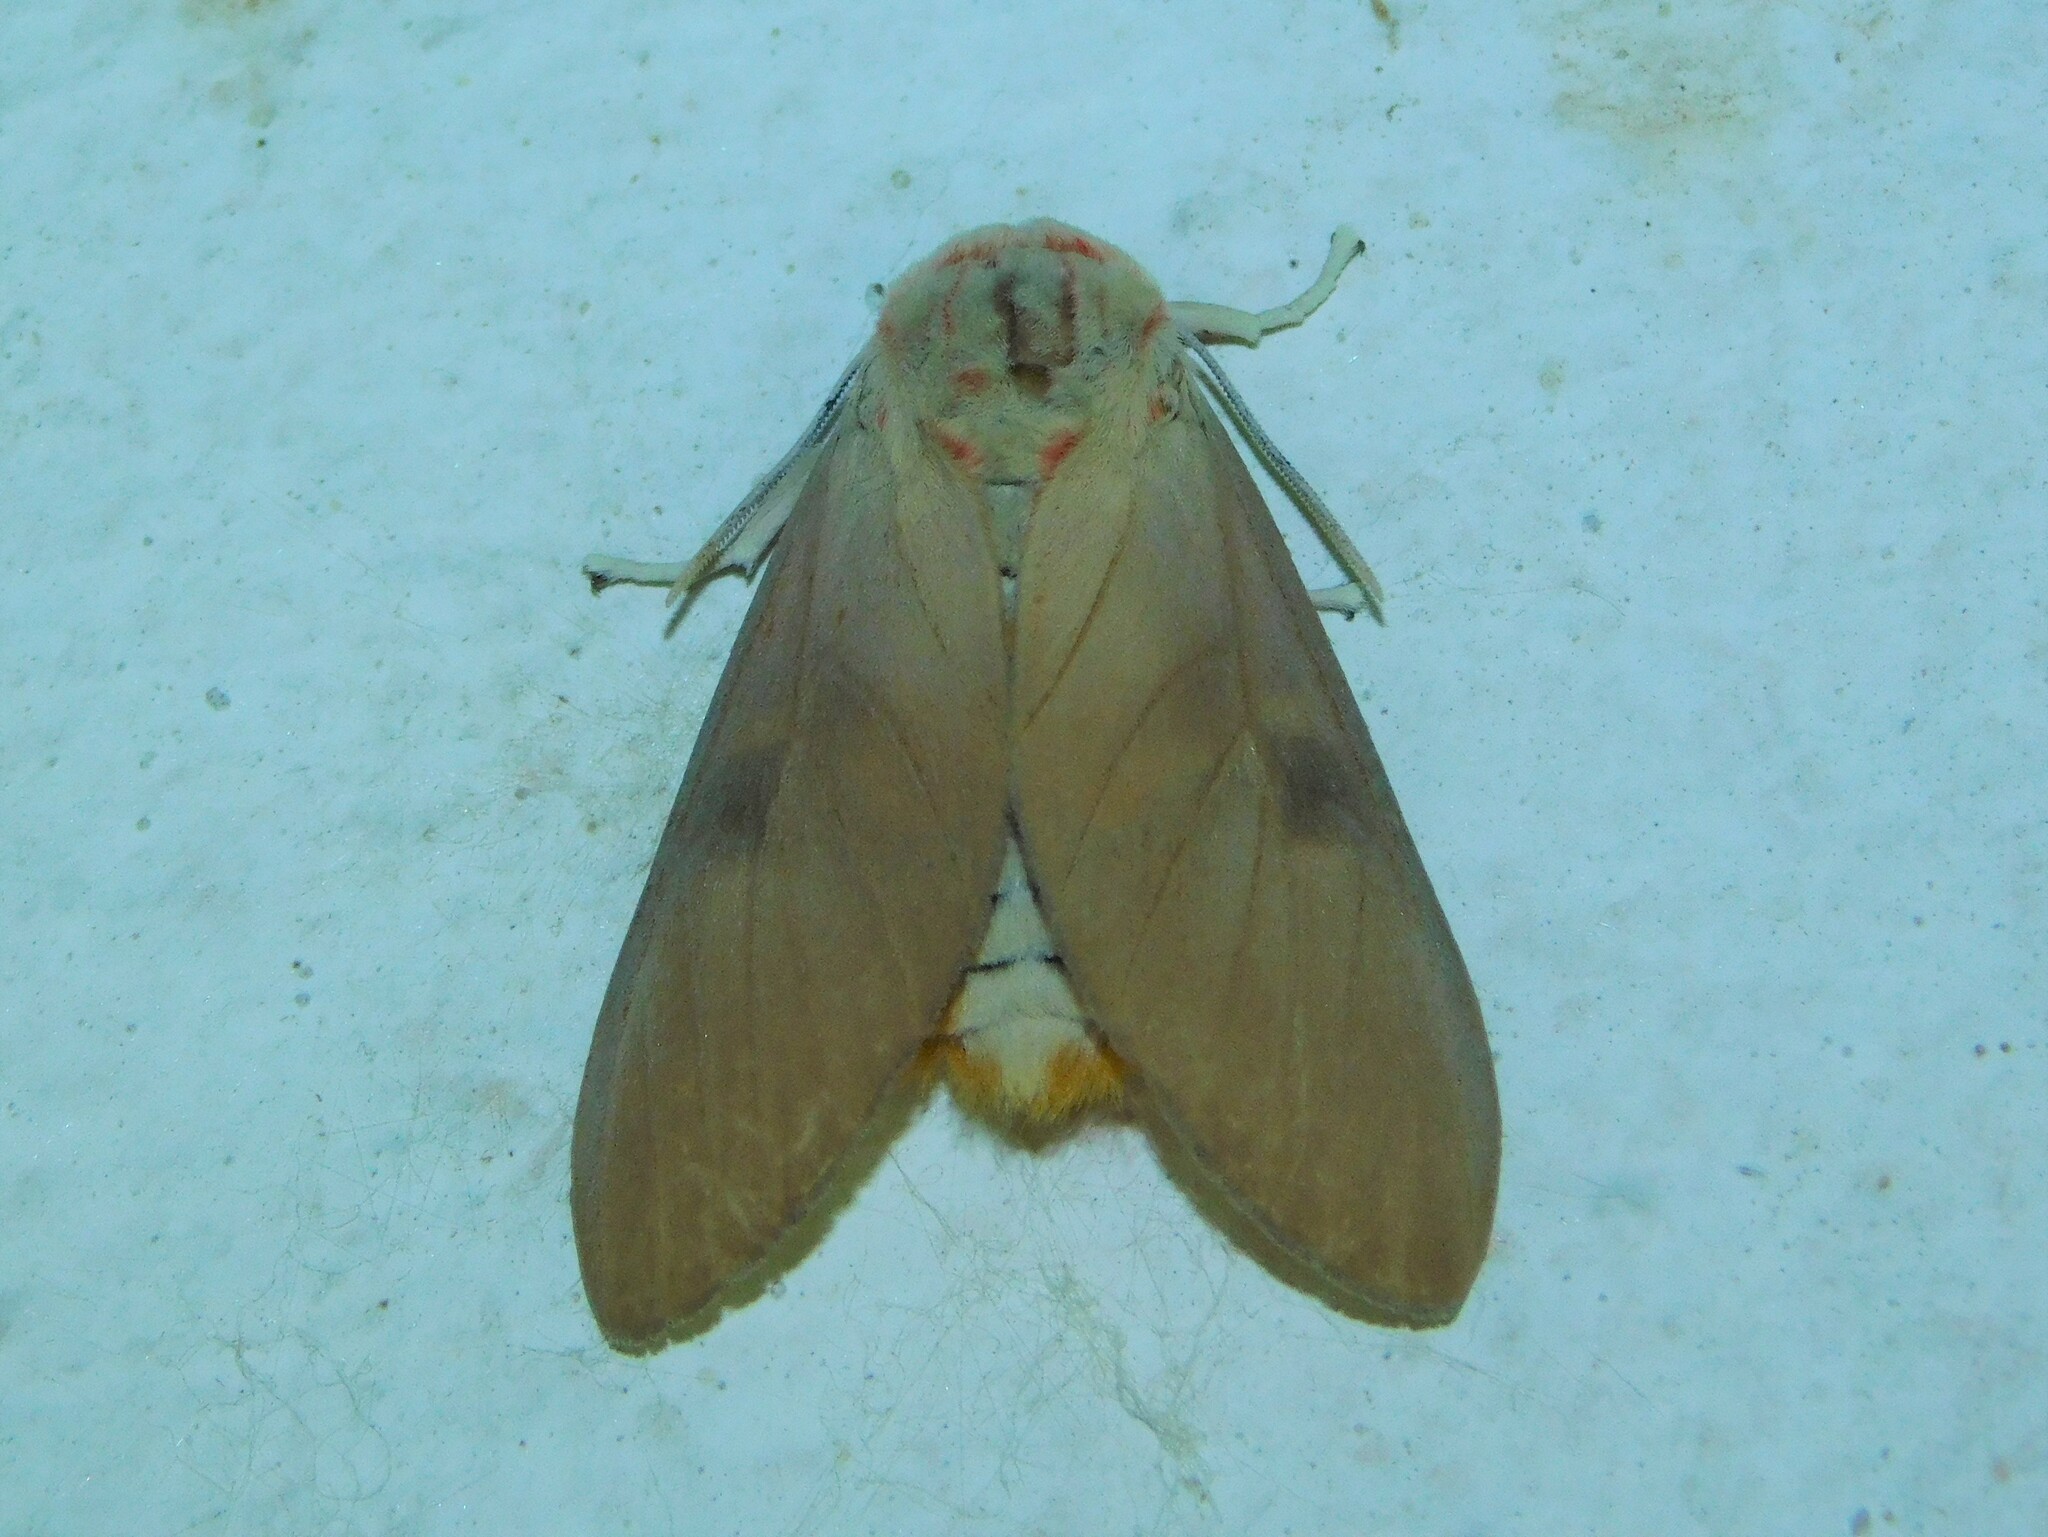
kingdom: Animalia
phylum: Arthropoda
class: Insecta
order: Lepidoptera
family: Erebidae
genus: Balacra
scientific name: Balacra herona
